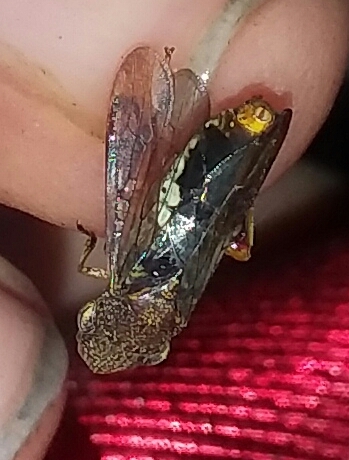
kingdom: Animalia
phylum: Arthropoda
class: Insecta
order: Hemiptera
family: Cicadellidae
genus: Homalodisca
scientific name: Homalodisca vitripennis
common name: Glassy-winged sharpshooter
